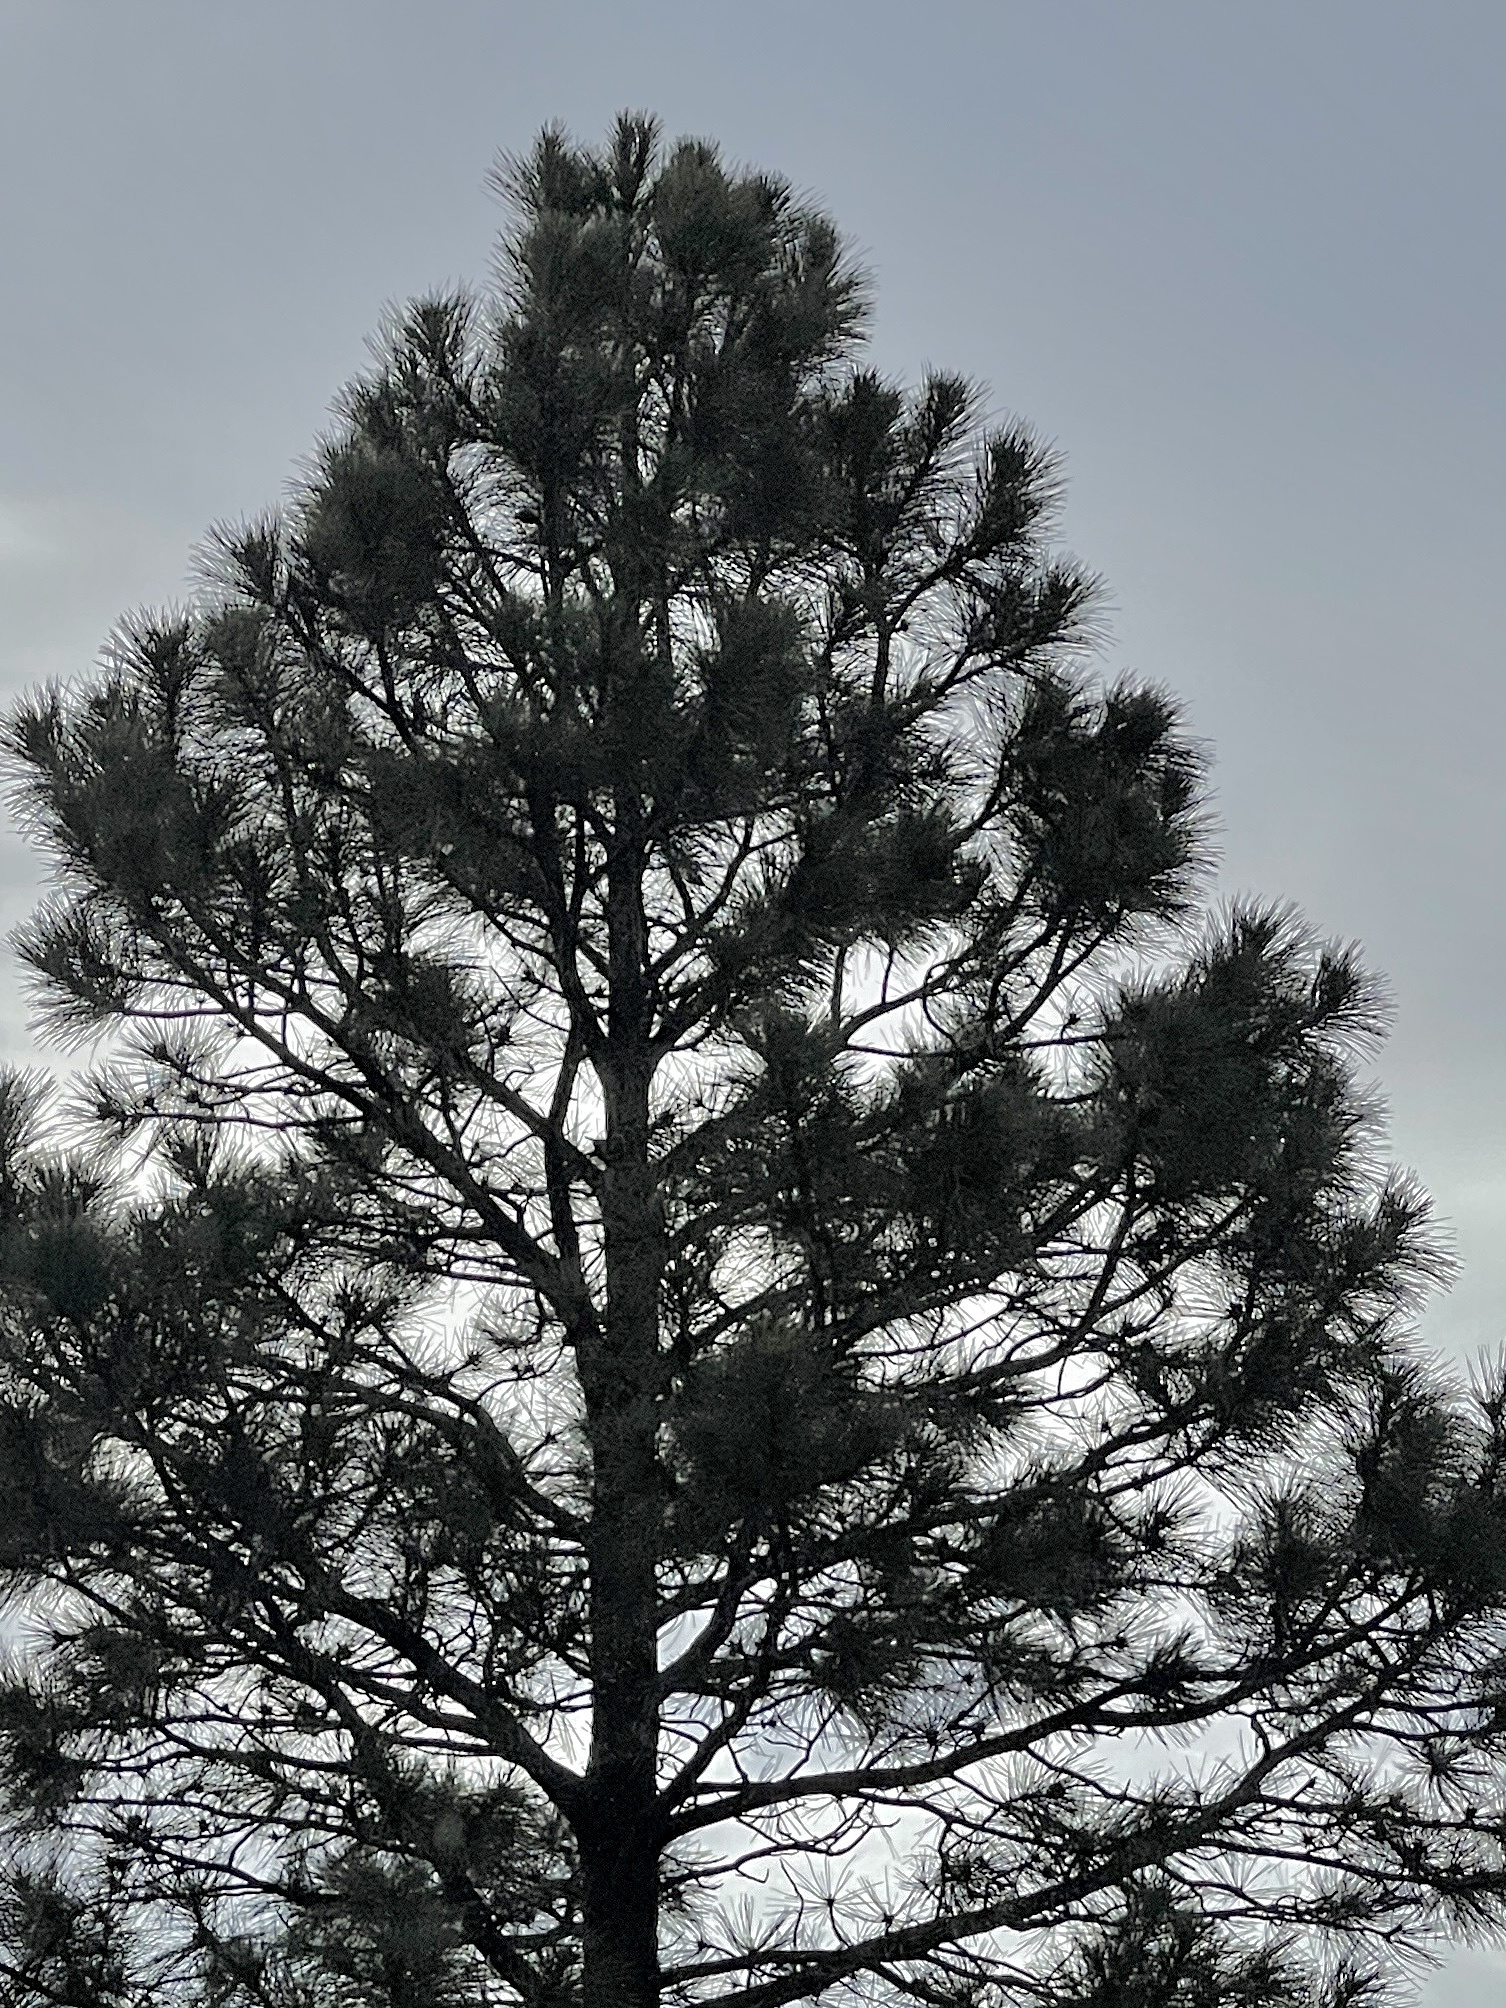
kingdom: Plantae
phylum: Tracheophyta
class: Pinopsida
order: Pinales
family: Pinaceae
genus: Pinus
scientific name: Pinus ponderosa
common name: Western yellow-pine
